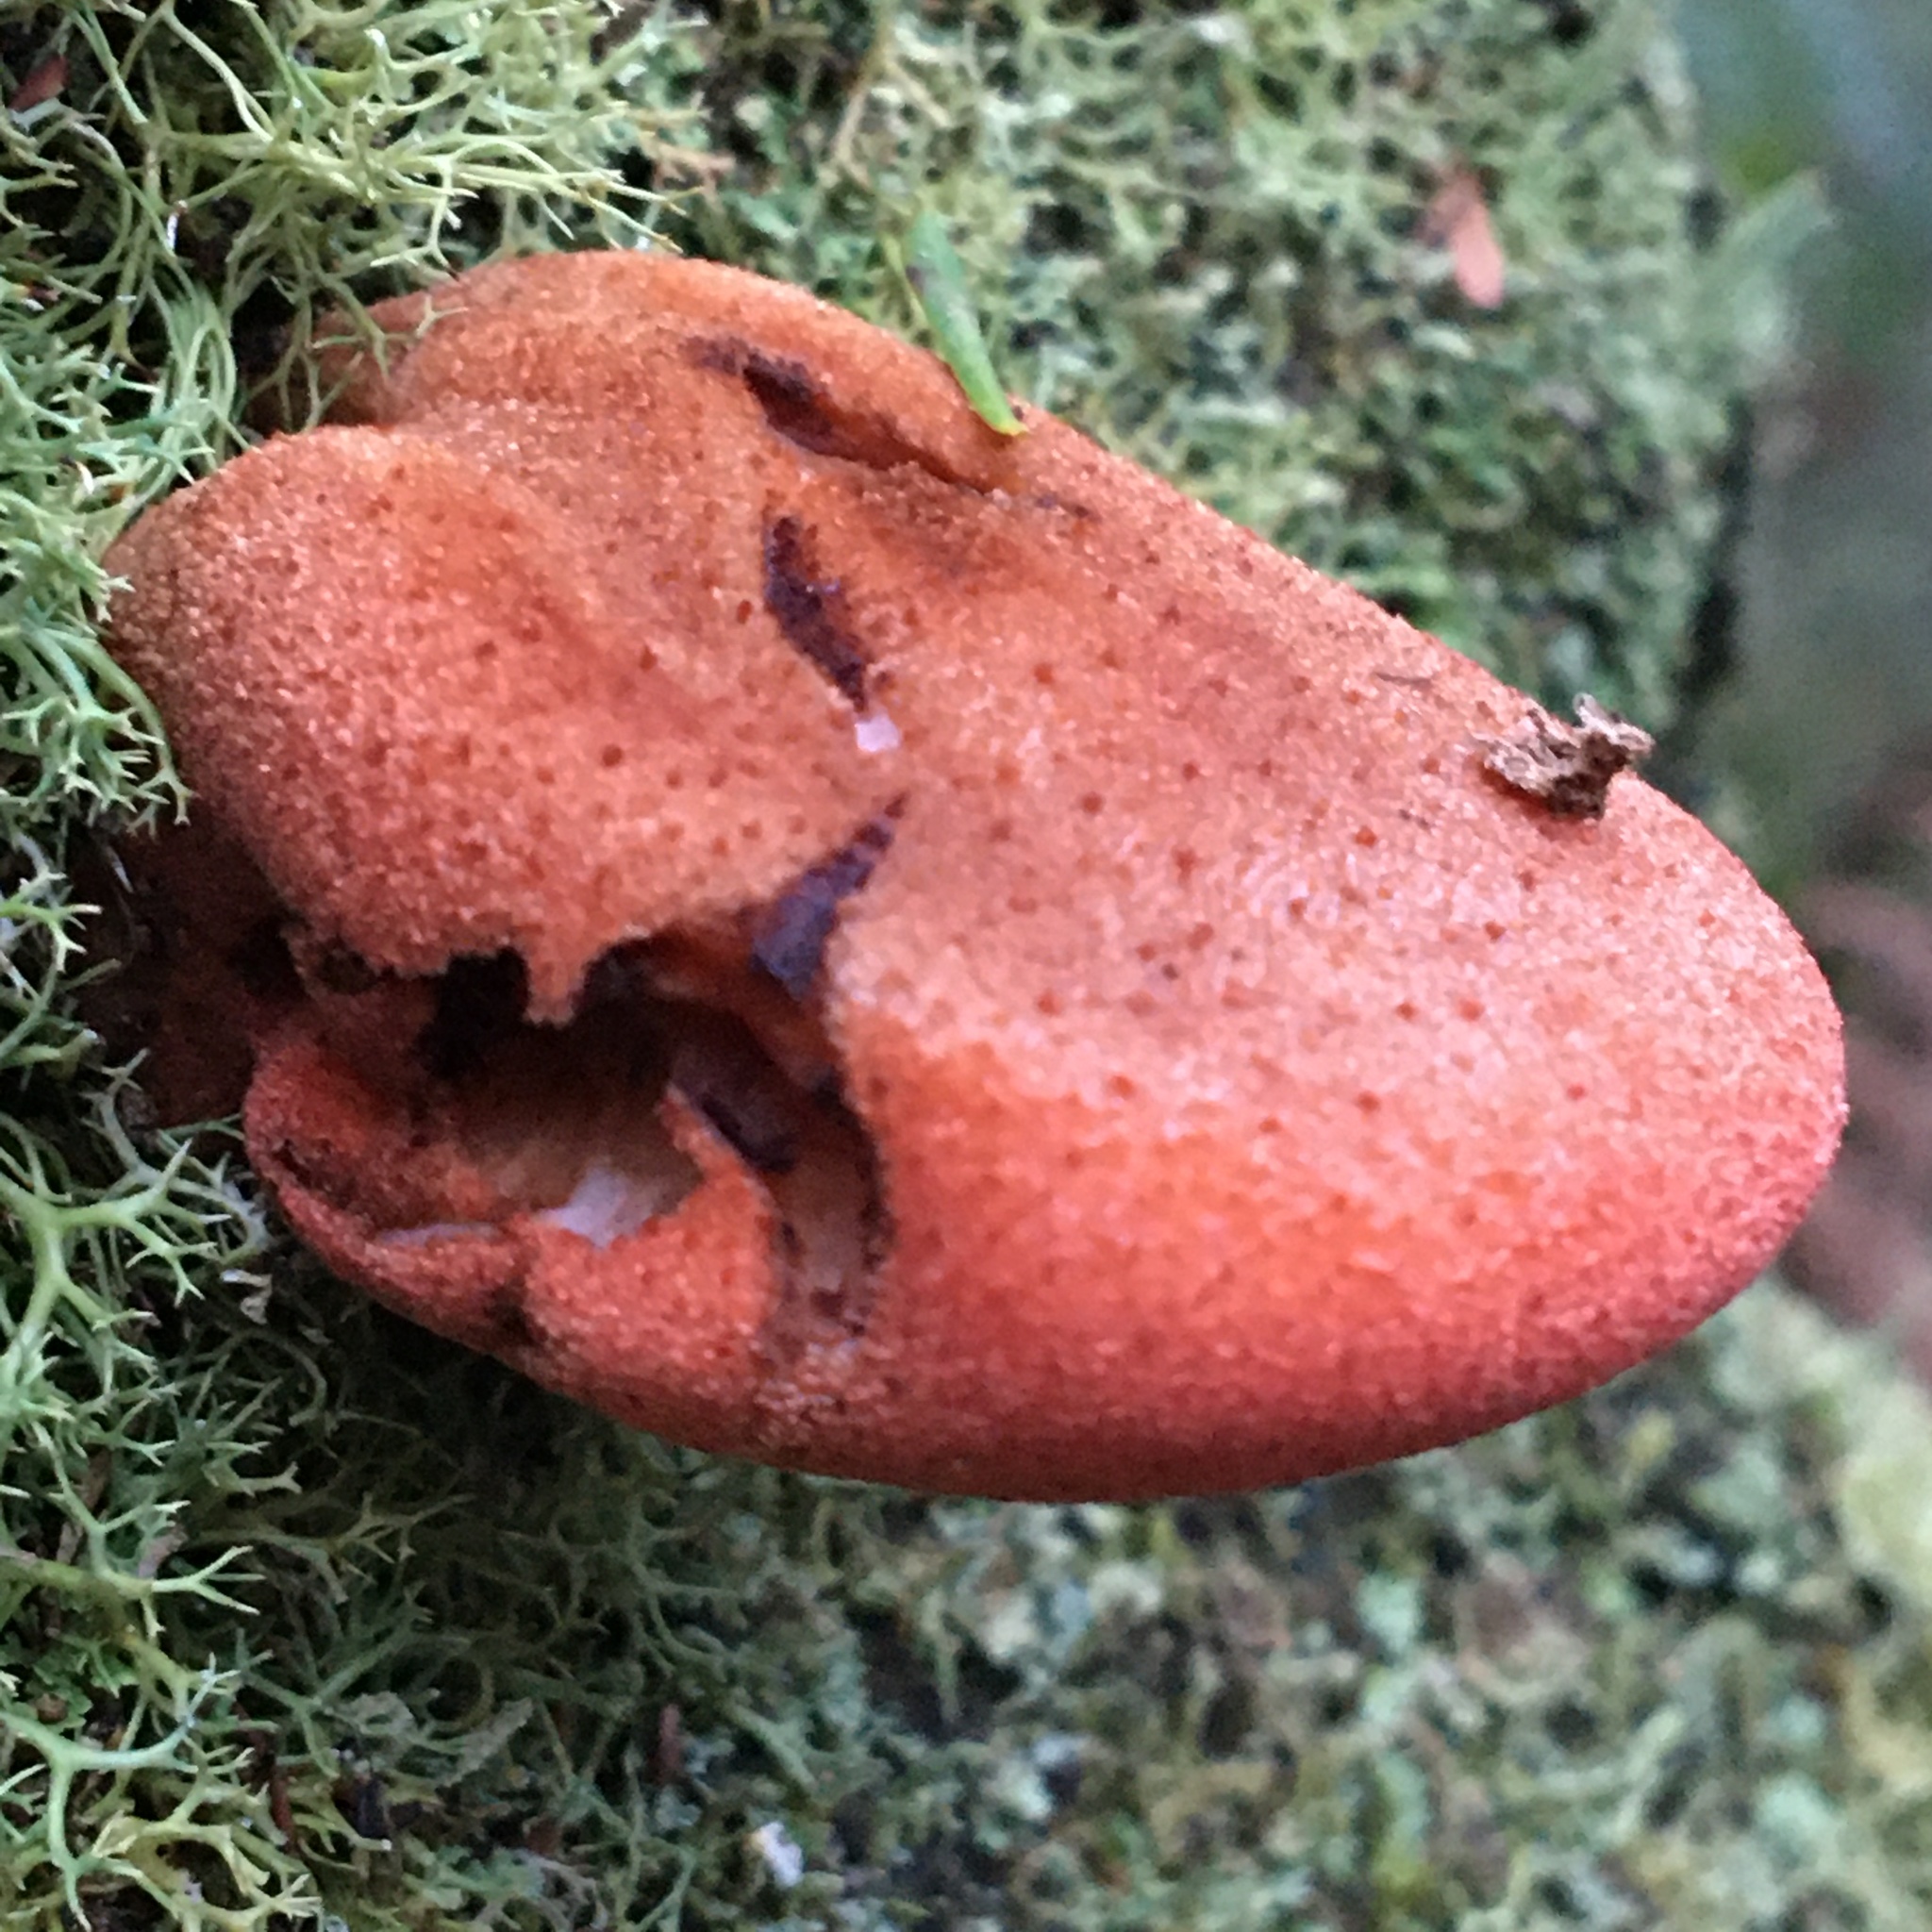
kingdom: Fungi
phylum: Basidiomycota
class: Agaricomycetes
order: Agaricales
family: Fistulinaceae
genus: Fistulina
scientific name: Fistulina spiculifera
